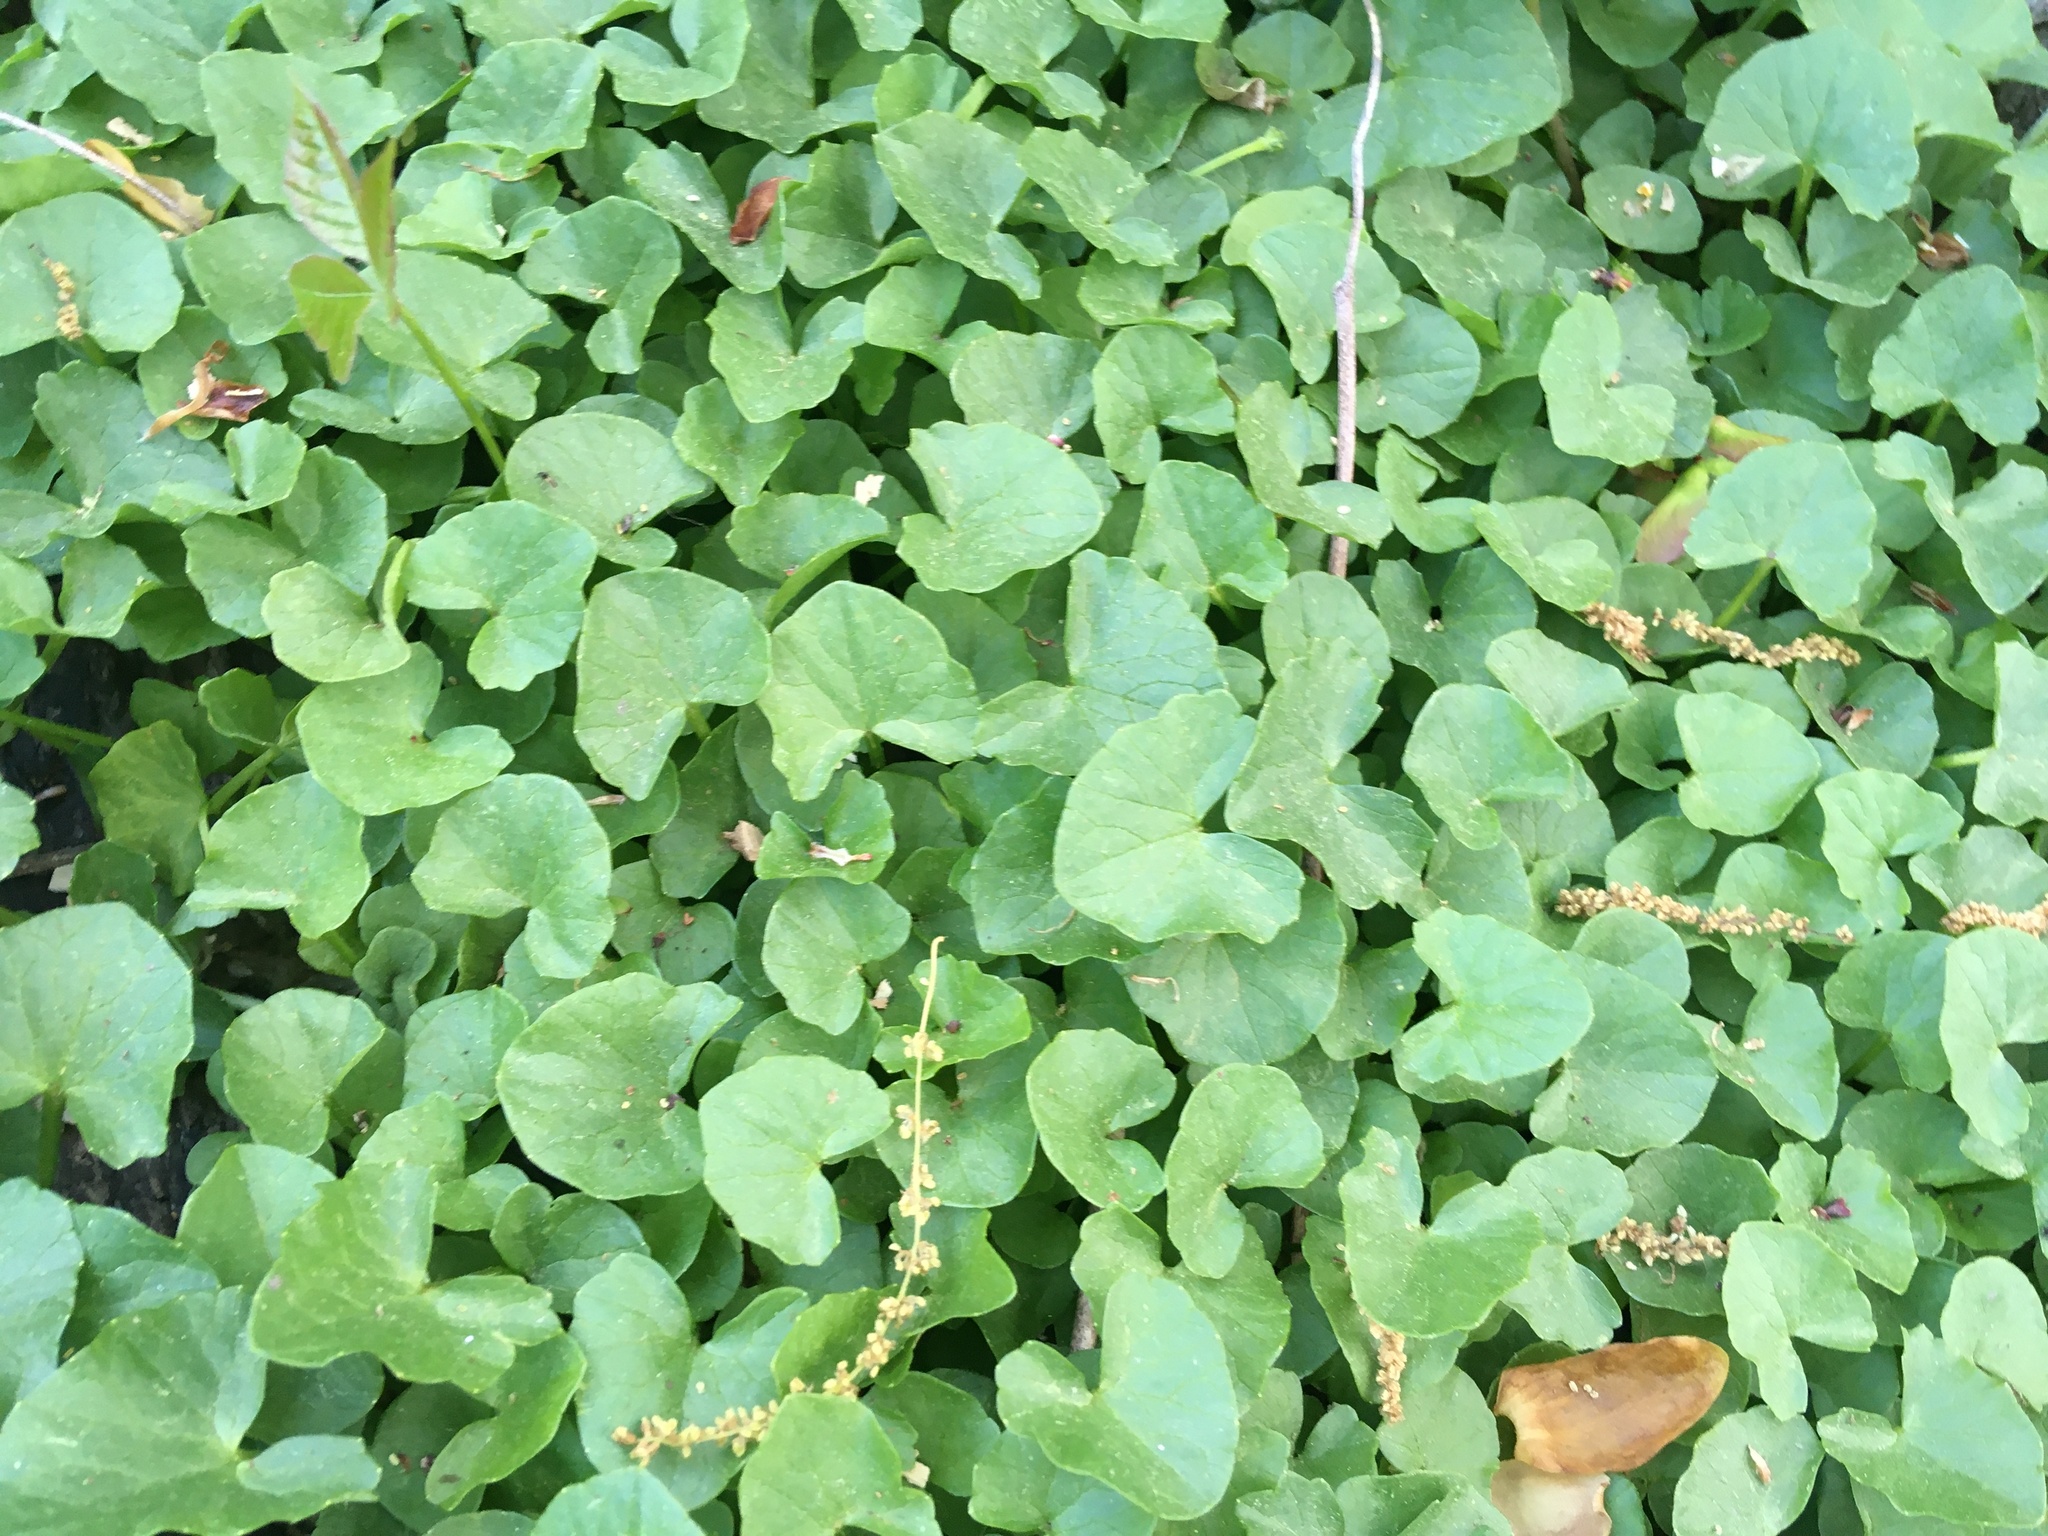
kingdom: Plantae
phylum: Tracheophyta
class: Magnoliopsida
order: Ranunculales
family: Ranunculaceae
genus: Ficaria
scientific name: Ficaria verna
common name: Lesser celandine
